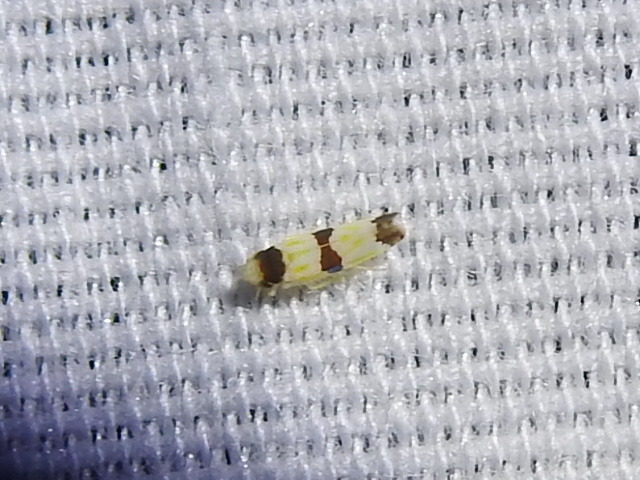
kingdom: Animalia
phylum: Arthropoda
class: Insecta
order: Hemiptera
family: Cicadellidae
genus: Erythroneura
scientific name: Erythroneura tricincta
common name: The threebanded grape leafhopper
